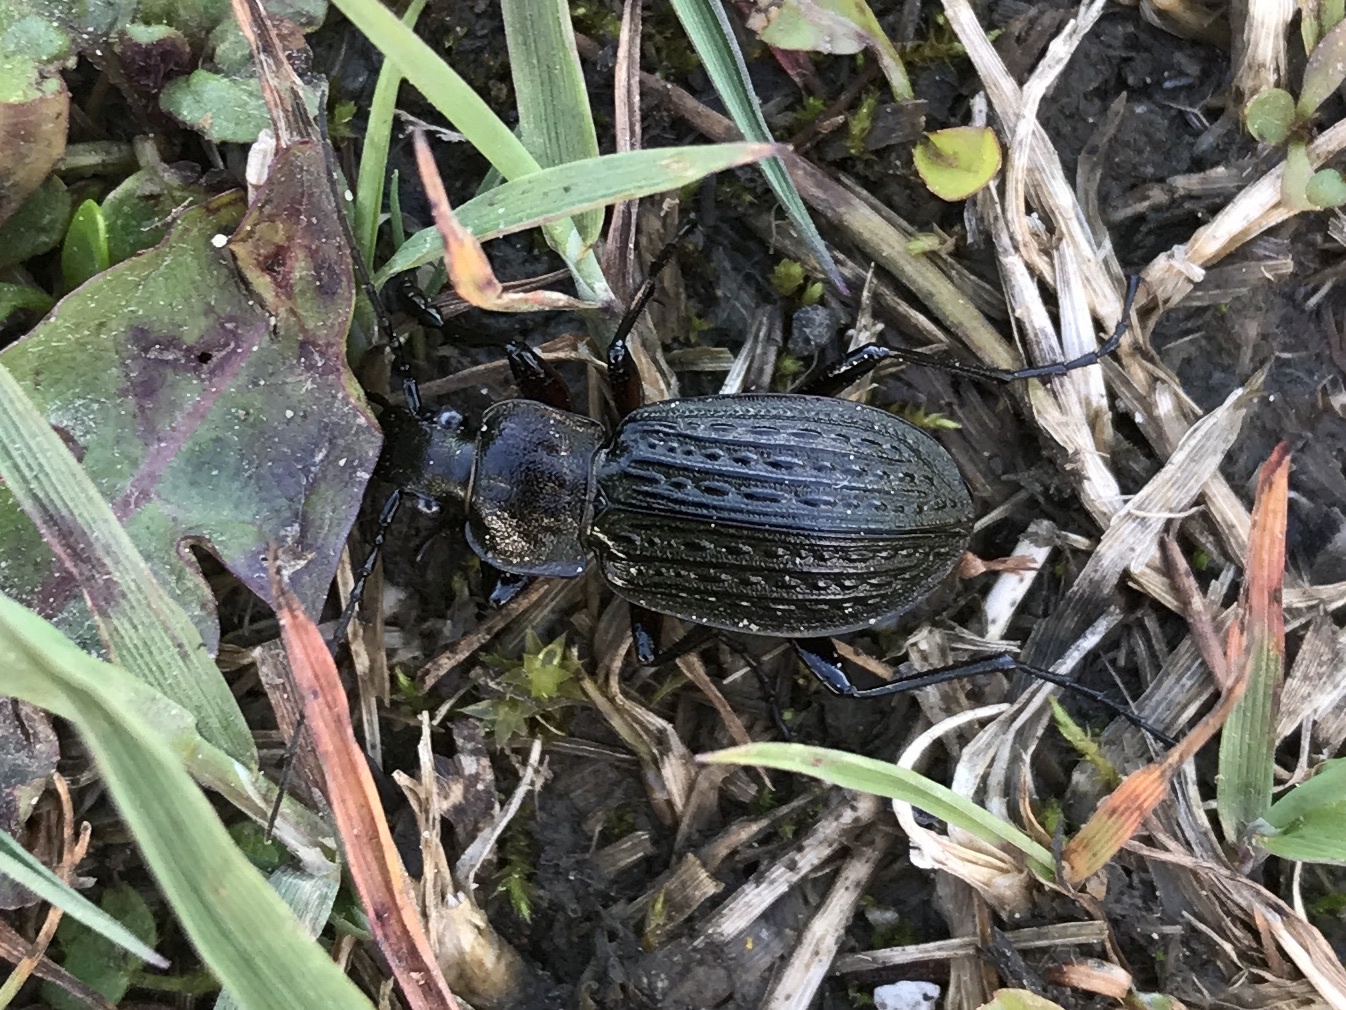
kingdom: Animalia
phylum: Arthropoda
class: Insecta
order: Coleoptera
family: Carabidae
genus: Carabus
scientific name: Carabus granulatus
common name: Granulate ground beetle
